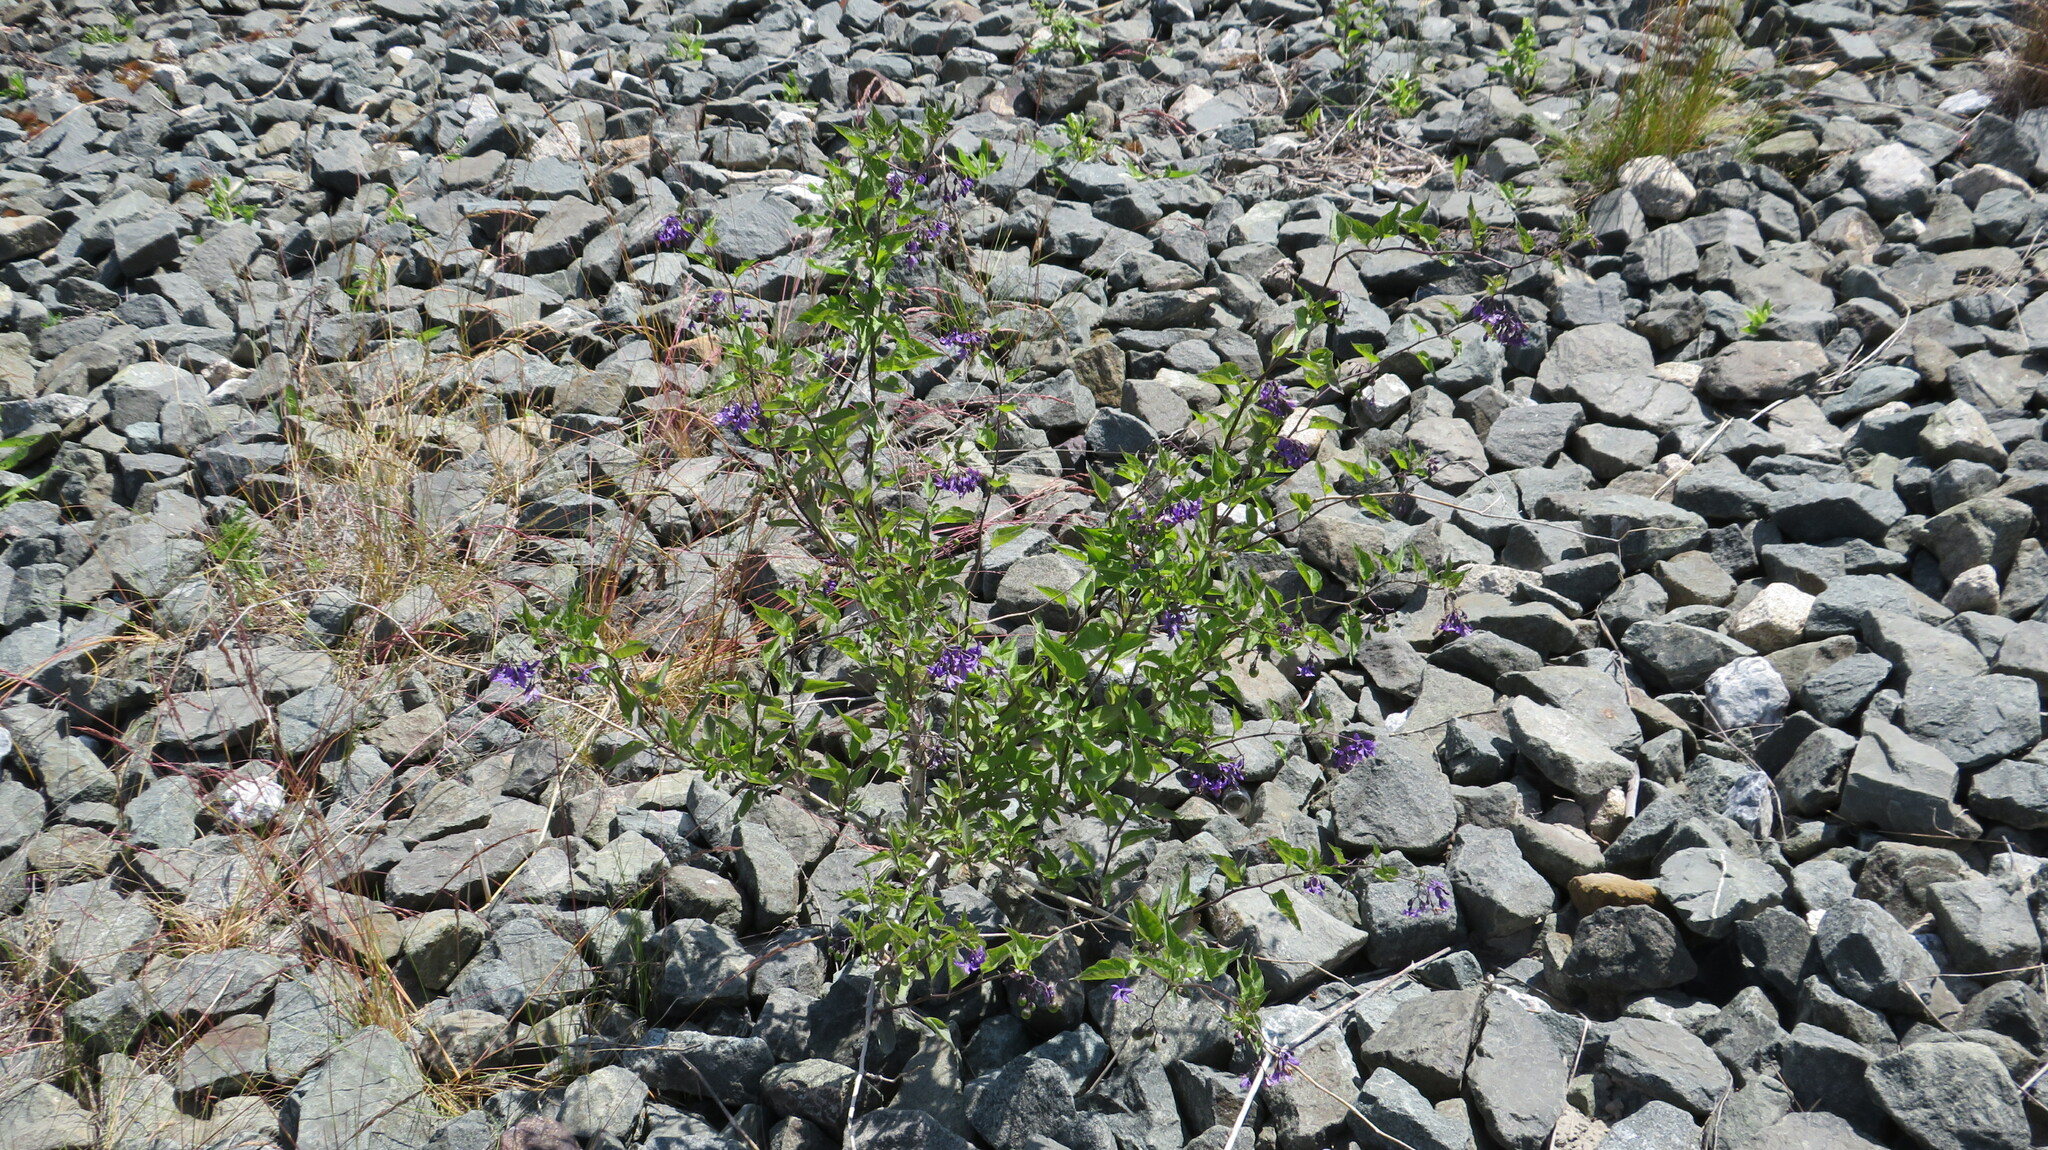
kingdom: Plantae
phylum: Tracheophyta
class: Magnoliopsida
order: Solanales
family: Solanaceae
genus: Solanum
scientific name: Solanum dulcamara
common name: Climbing nightshade
